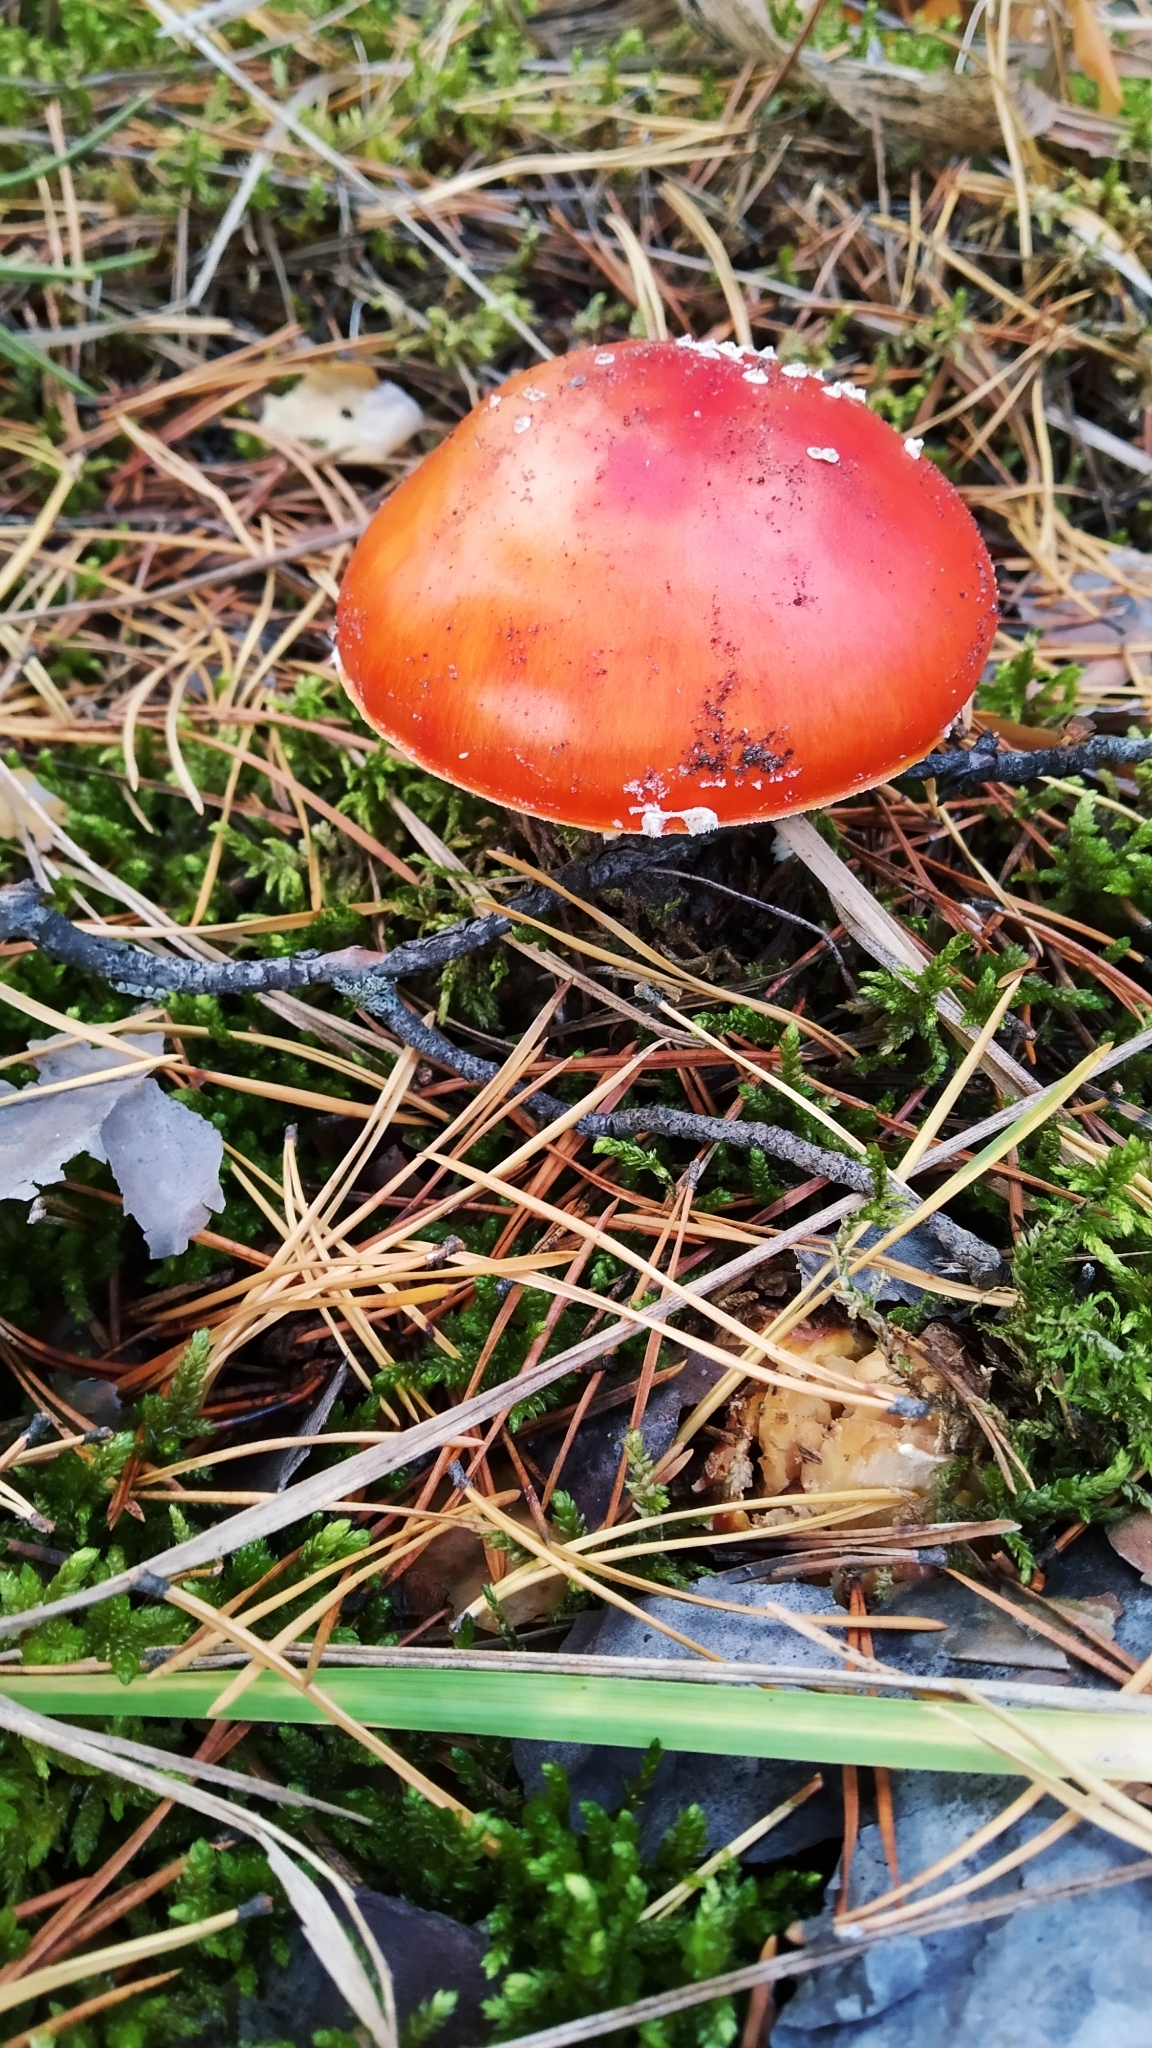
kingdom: Fungi
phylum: Basidiomycota
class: Agaricomycetes
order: Agaricales
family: Amanitaceae
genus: Amanita
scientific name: Amanita muscaria
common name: Fly agaric
